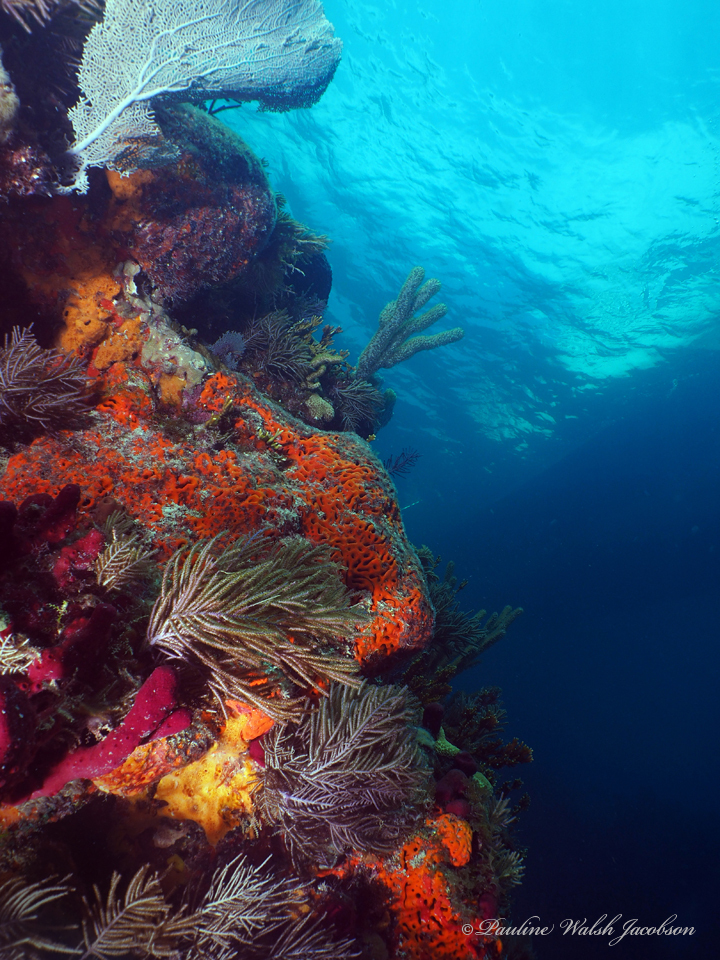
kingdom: Animalia
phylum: Porifera
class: Demospongiae
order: Agelasida
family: Agelasidae
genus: Agelas
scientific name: Agelas clathrodes
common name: Orange elephant ear sponge
